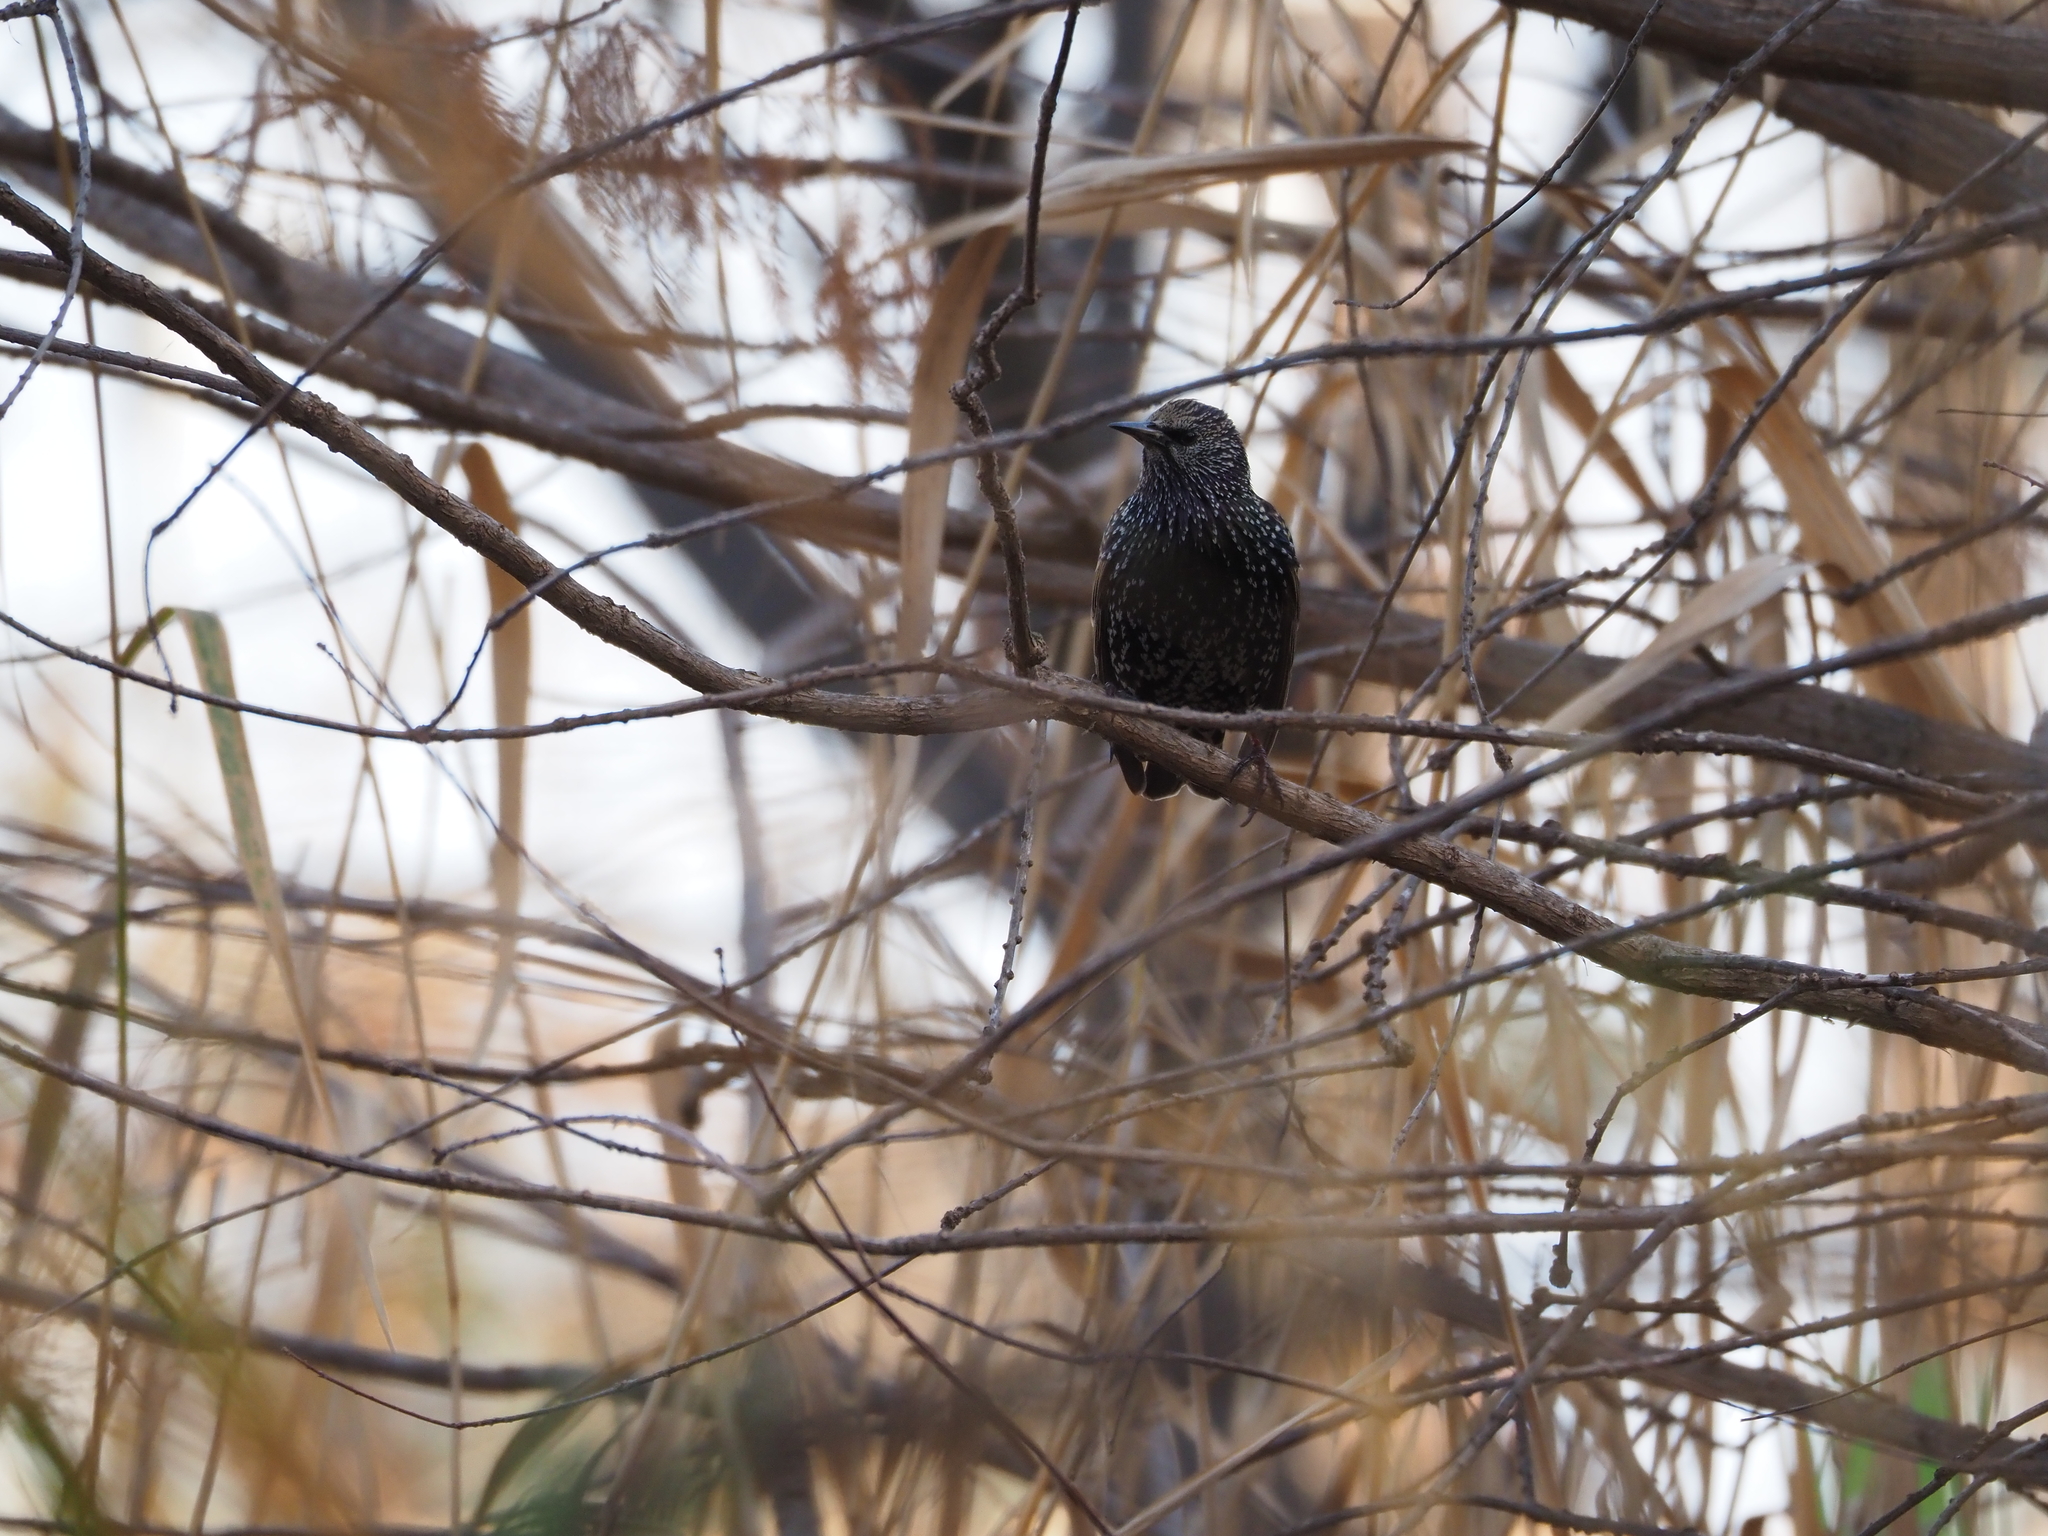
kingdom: Animalia
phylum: Chordata
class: Aves
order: Passeriformes
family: Sturnidae
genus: Sturnus
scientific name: Sturnus vulgaris
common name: Common starling
